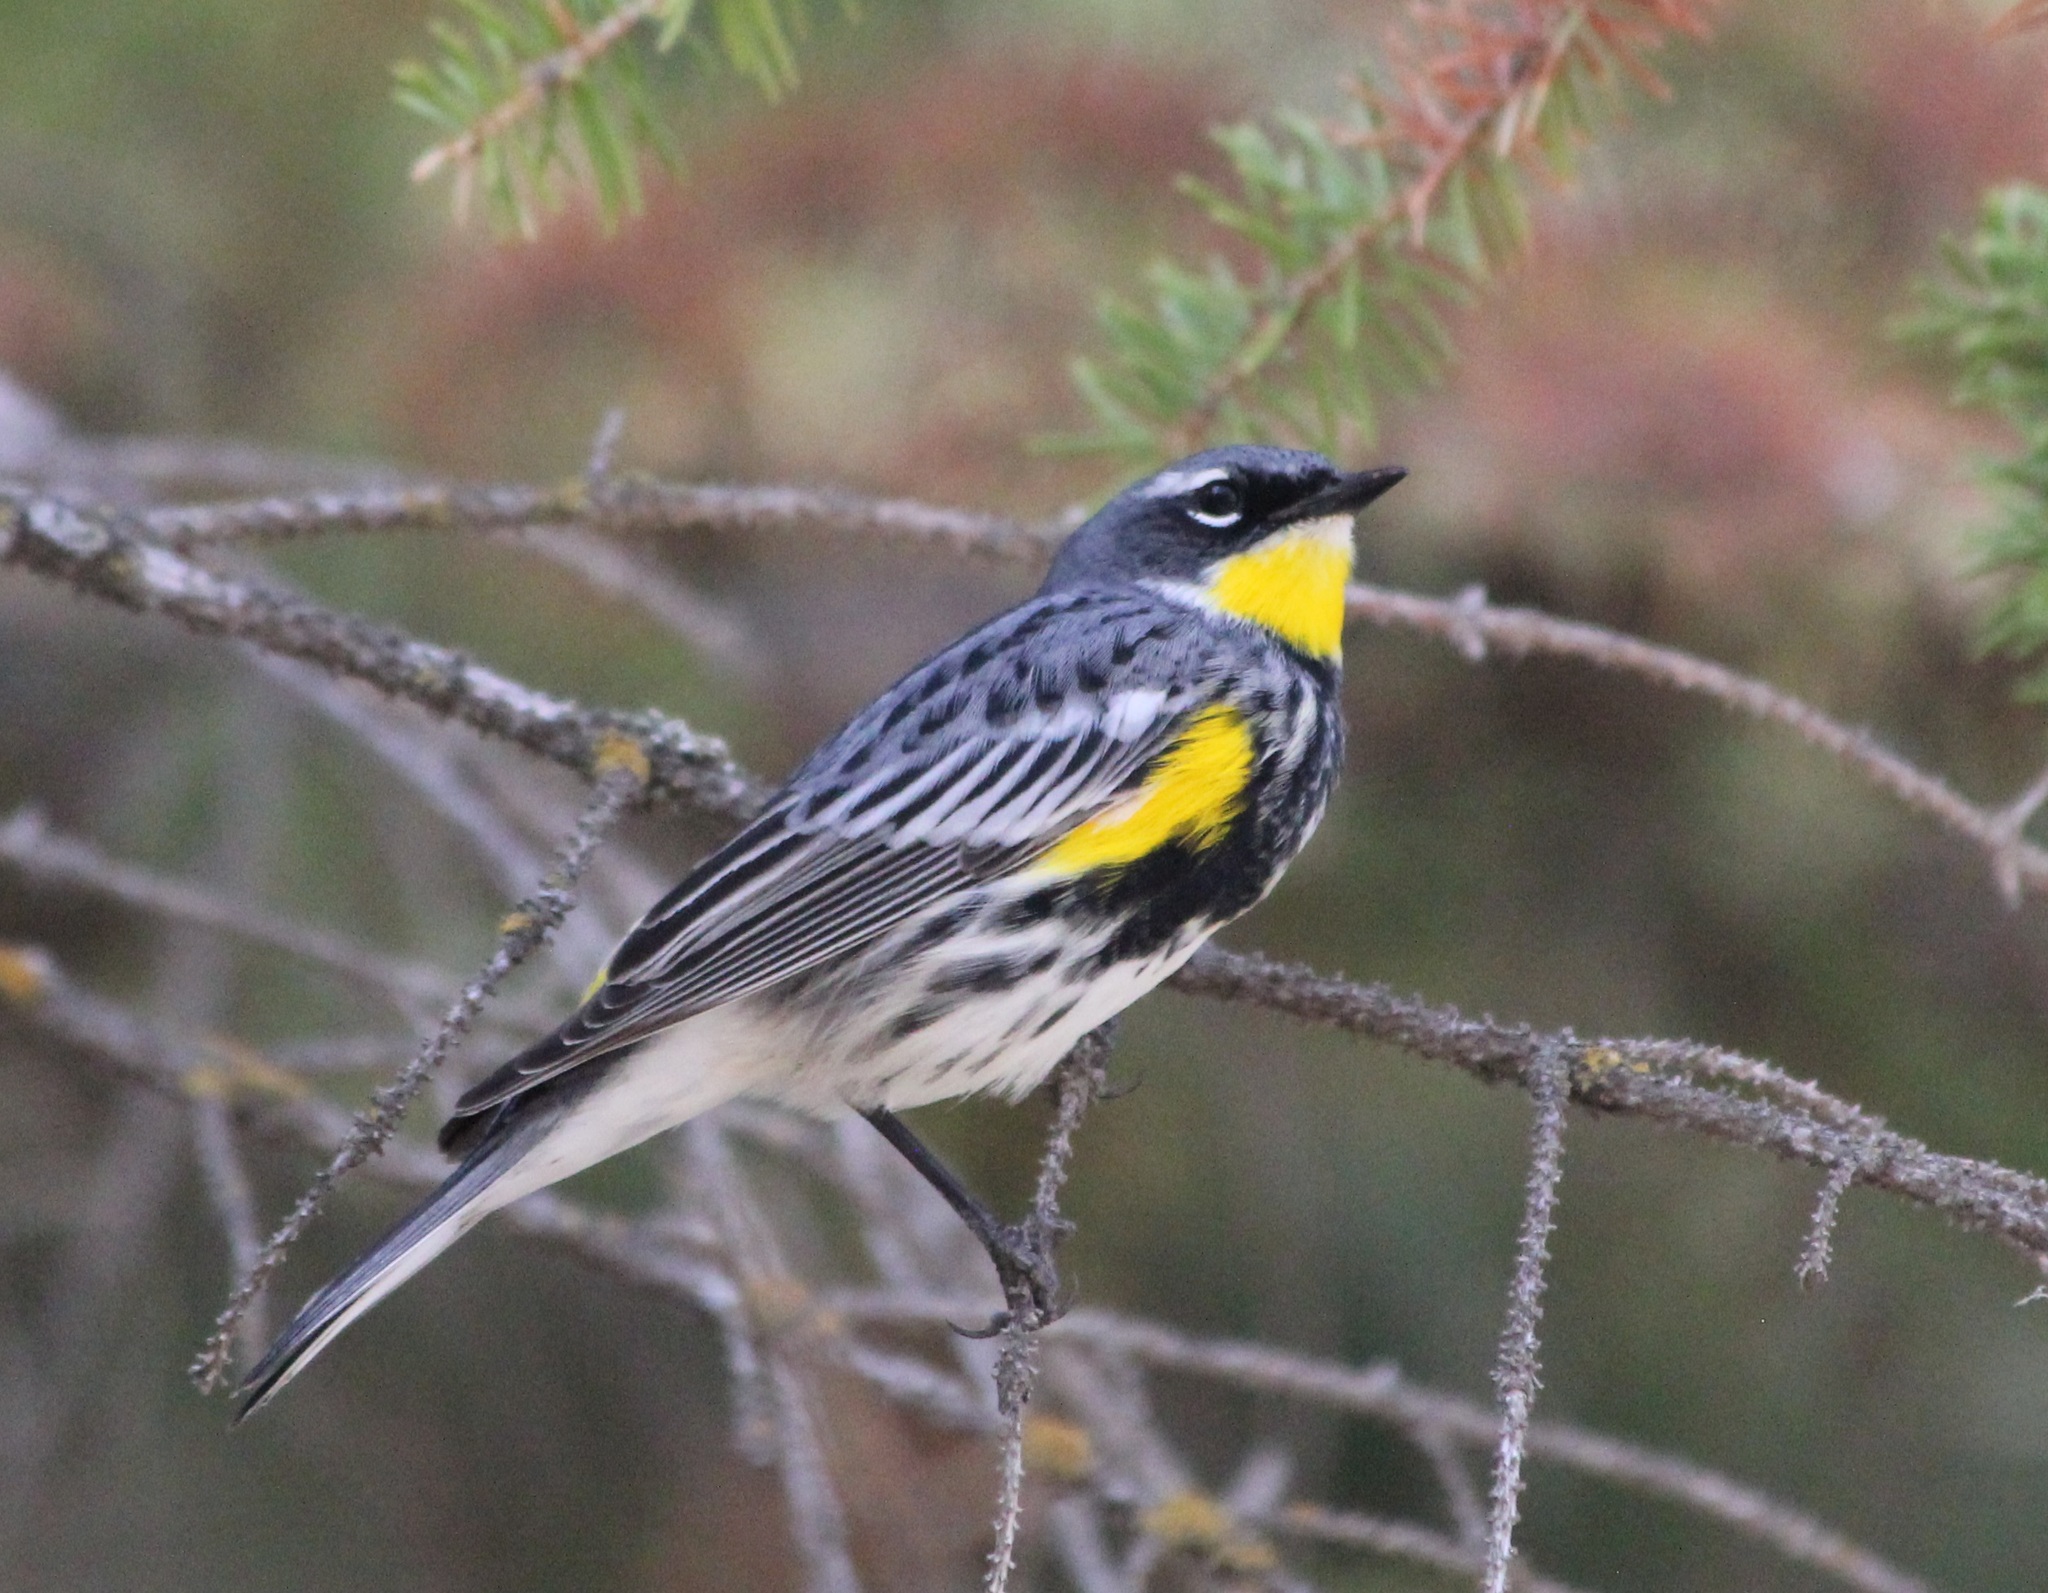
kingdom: Animalia
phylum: Chordata
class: Aves
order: Passeriformes
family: Parulidae
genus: Setophaga
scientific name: Setophaga coronata
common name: Myrtle warbler
